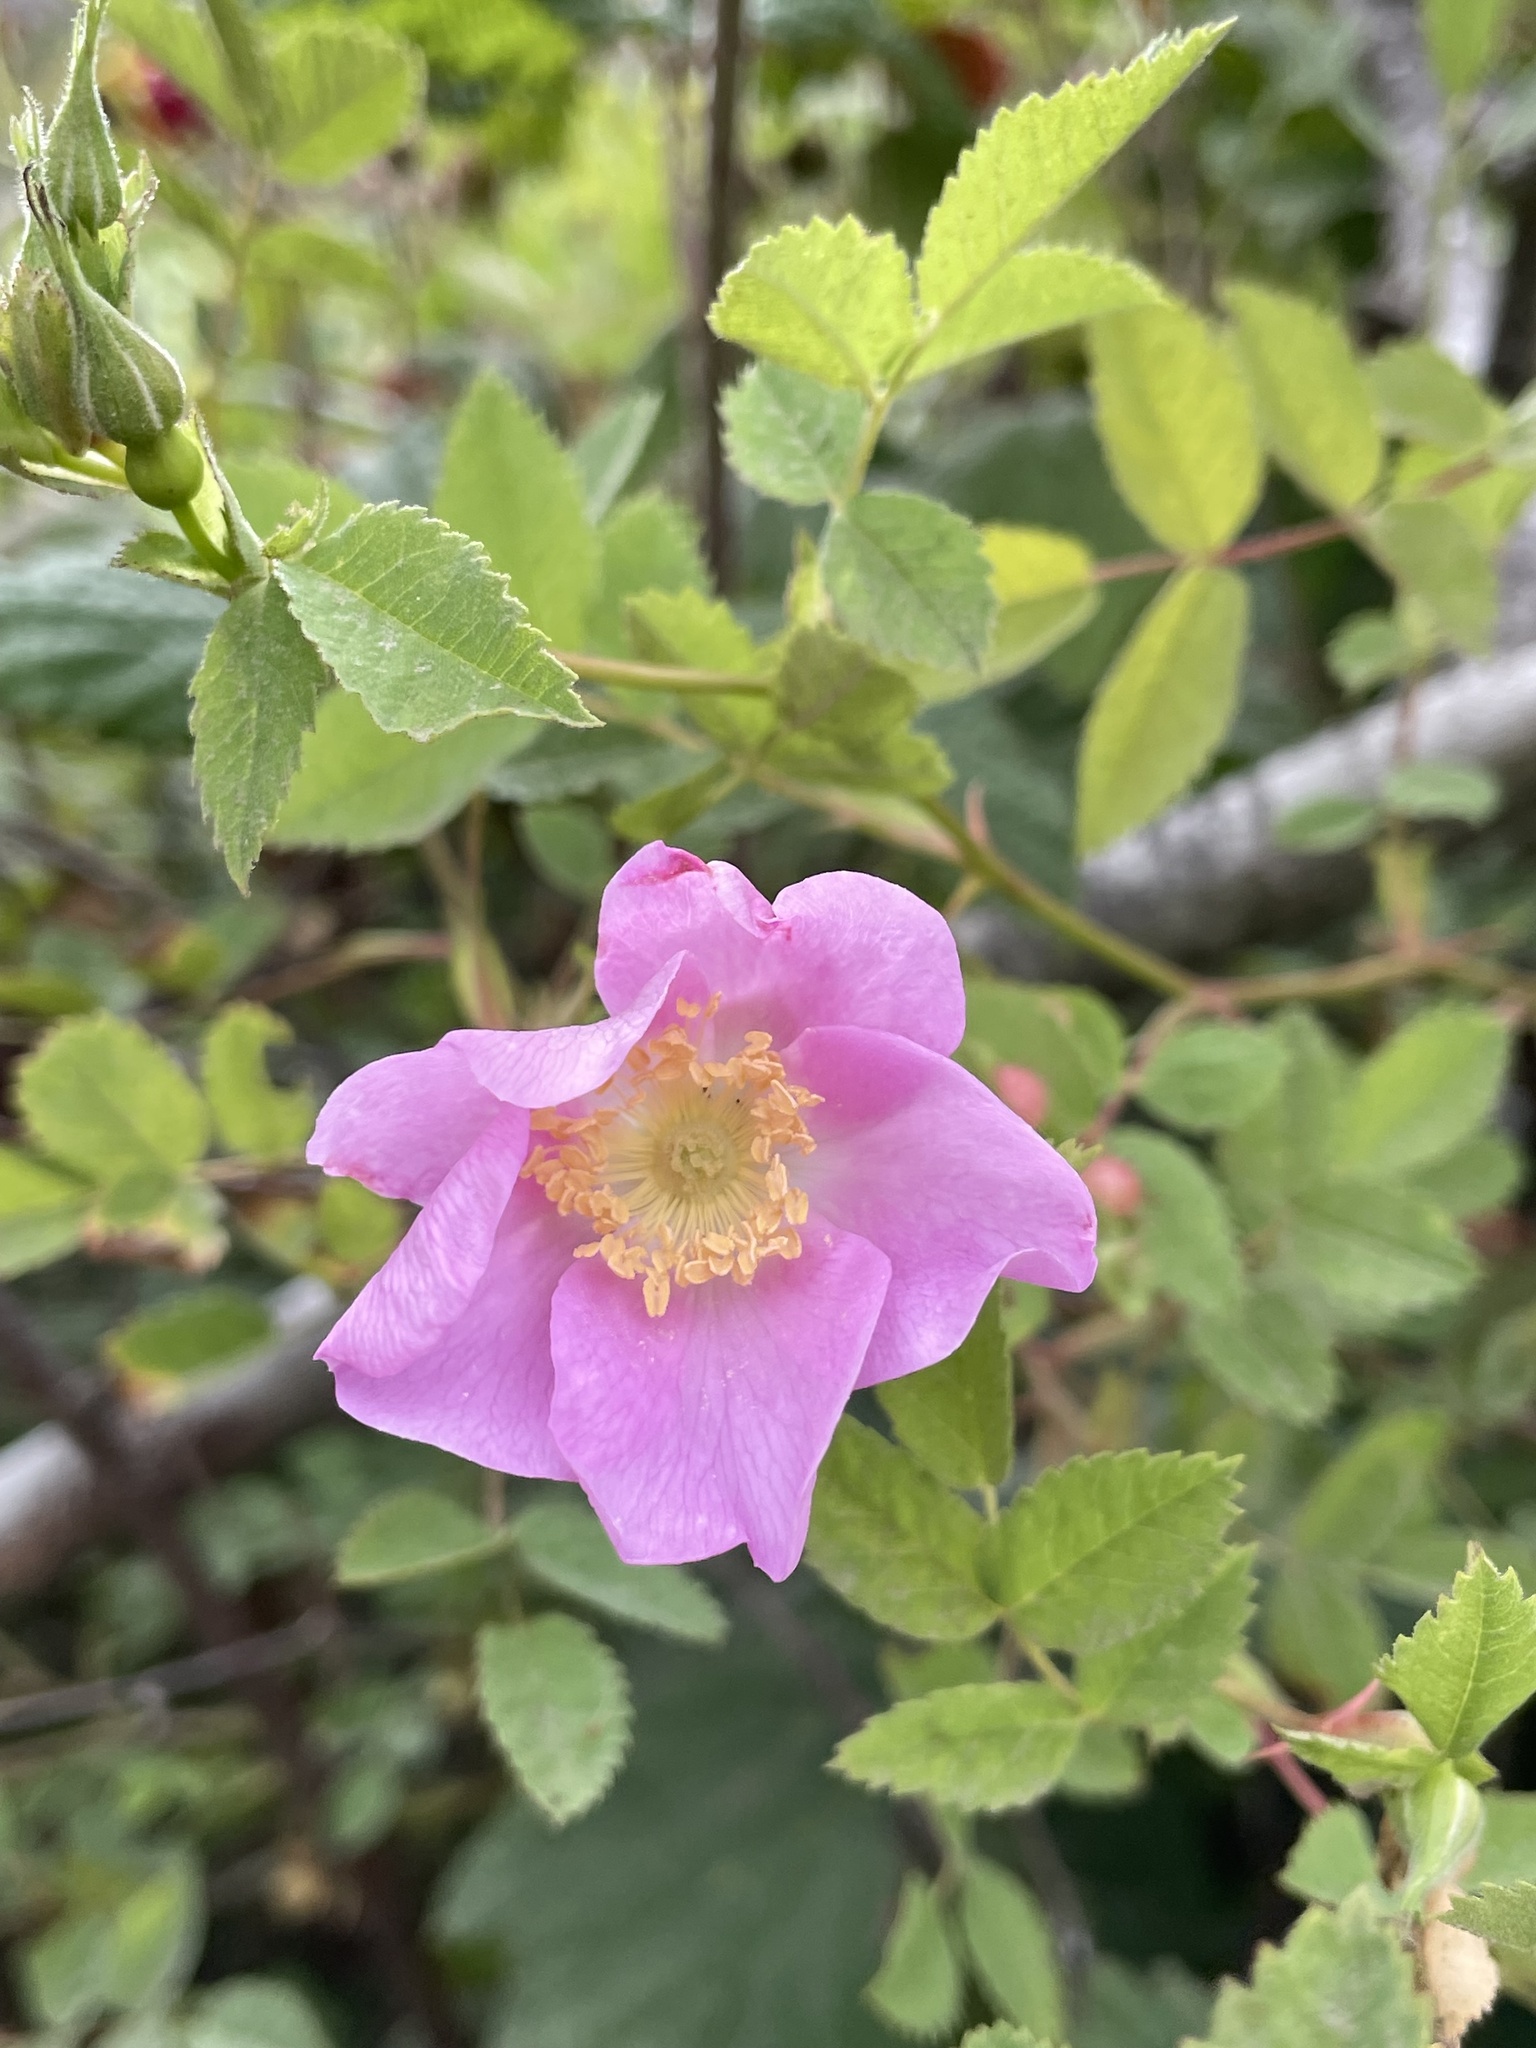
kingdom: Plantae
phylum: Tracheophyta
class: Magnoliopsida
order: Rosales
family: Rosaceae
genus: Rosa
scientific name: Rosa californica
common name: California rose
